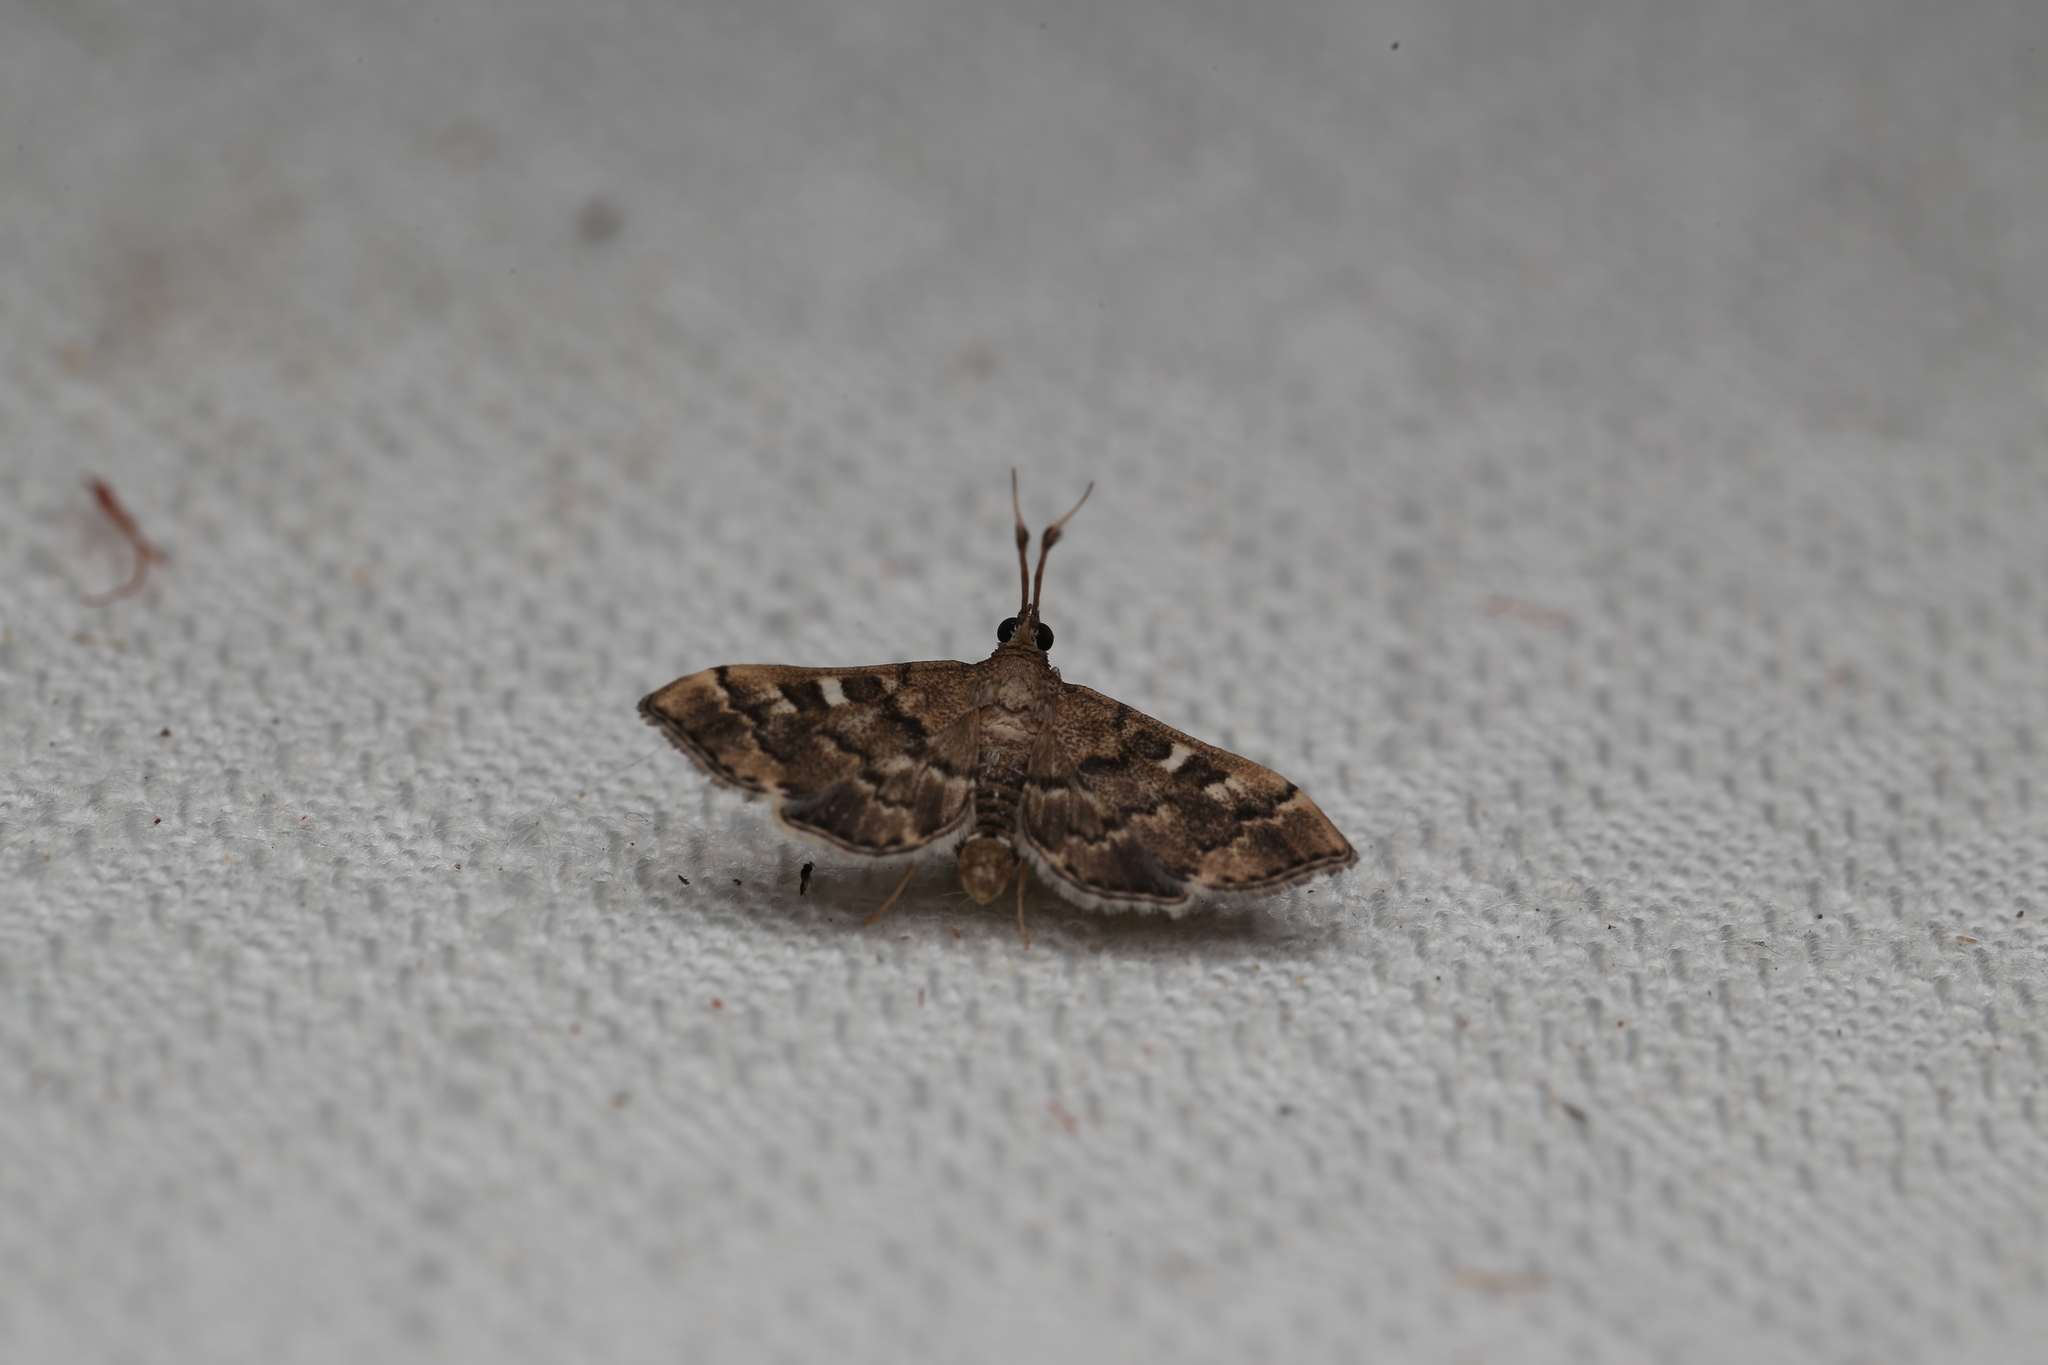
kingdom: Animalia
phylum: Arthropoda
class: Insecta
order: Lepidoptera
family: Crambidae
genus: Nacoleia
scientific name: Nacoleia rhoeoalis
